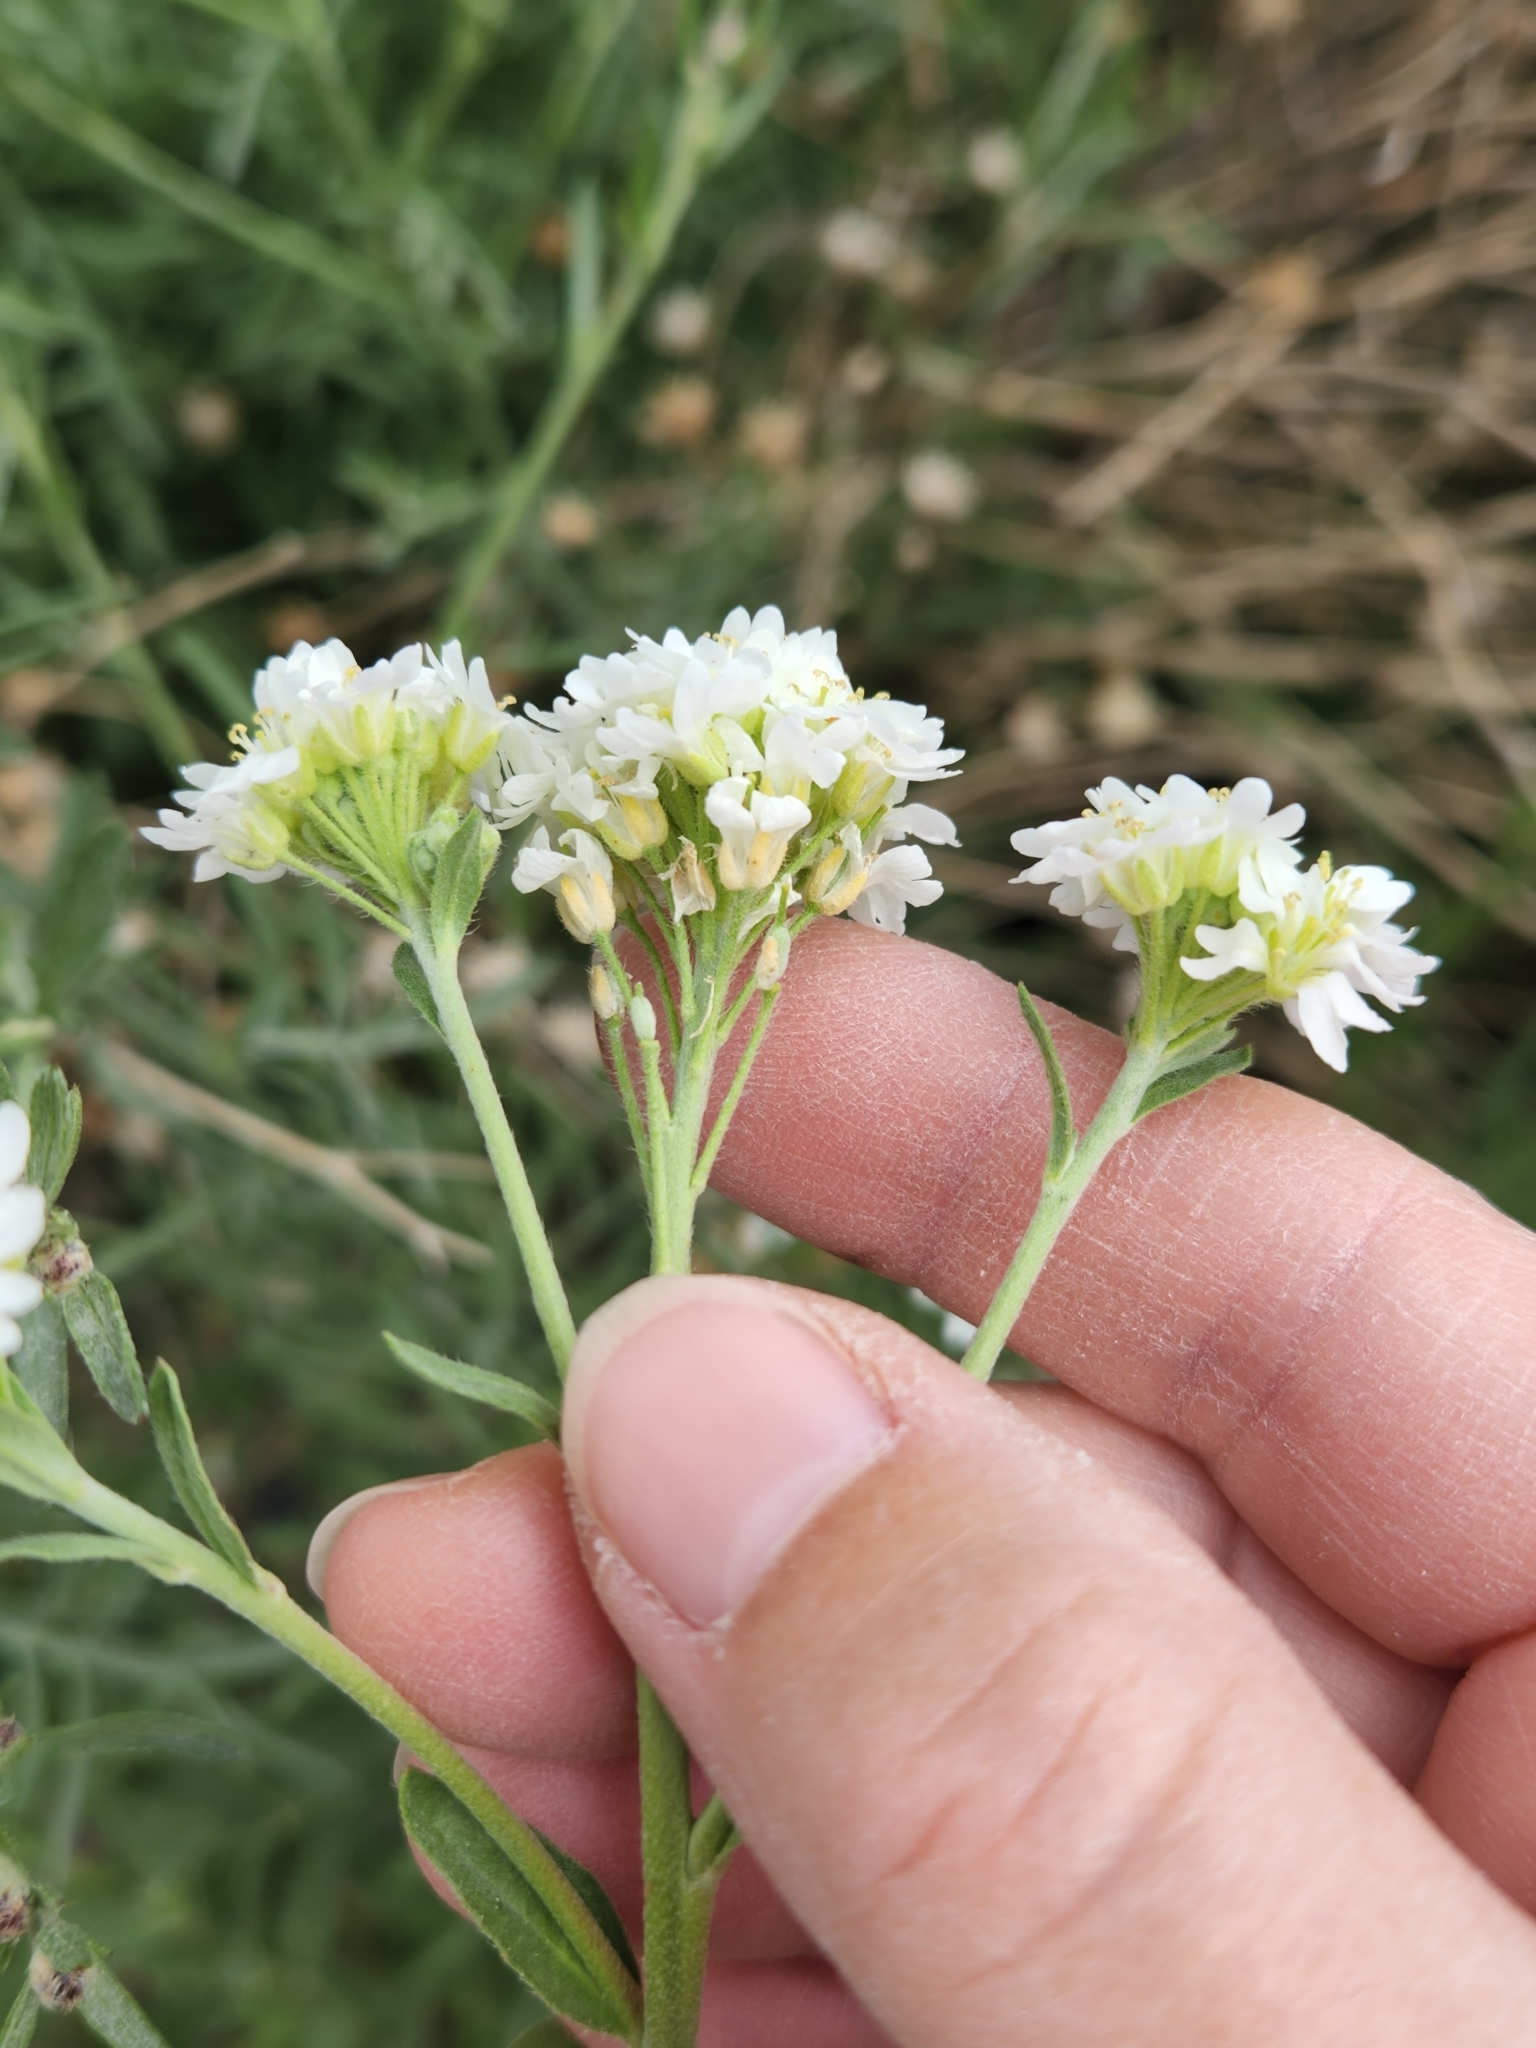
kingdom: Plantae
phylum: Tracheophyta
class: Magnoliopsida
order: Brassicales
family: Brassicaceae
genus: Berteroa
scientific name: Berteroa incana
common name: Hoary alison
